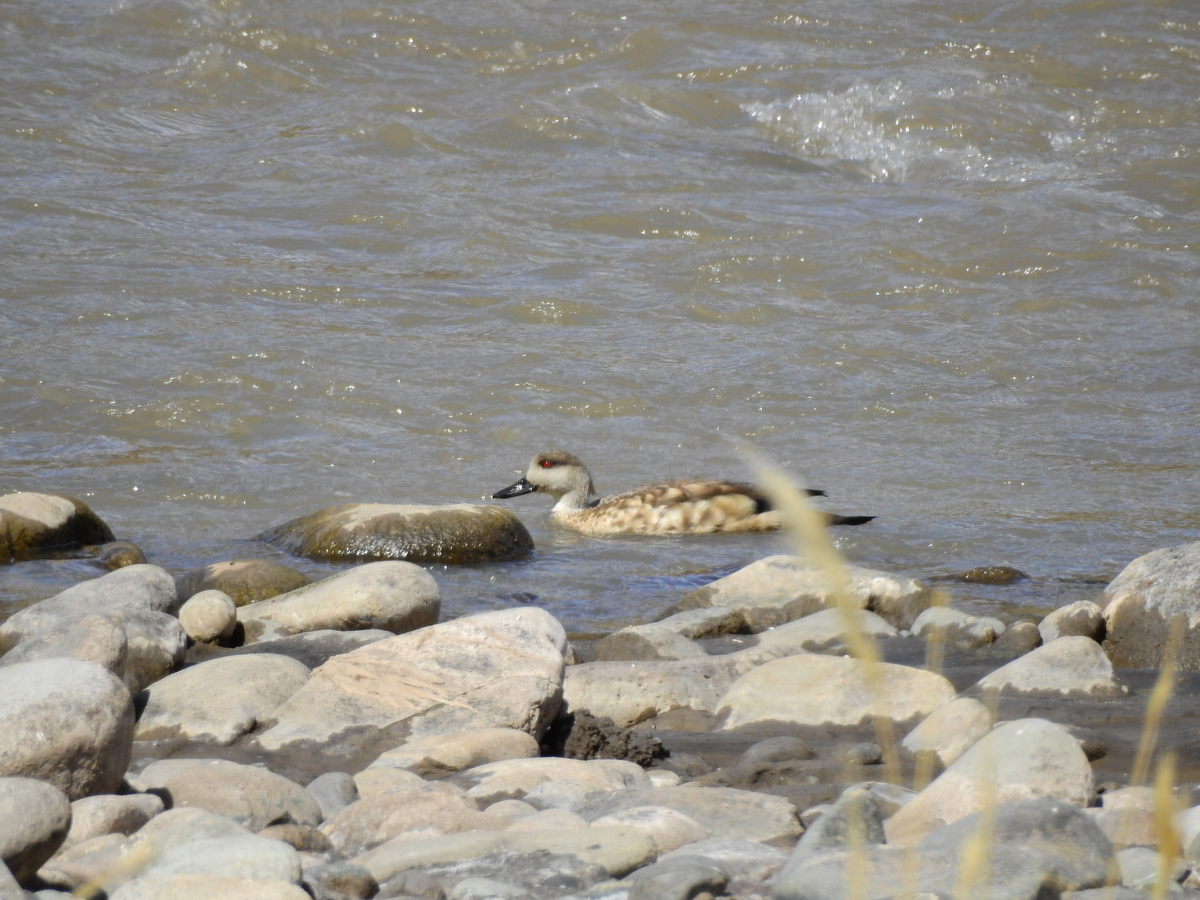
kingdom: Animalia
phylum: Chordata
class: Aves
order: Anseriformes
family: Anatidae
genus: Lophonetta
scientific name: Lophonetta specularioides
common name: Crested duck
